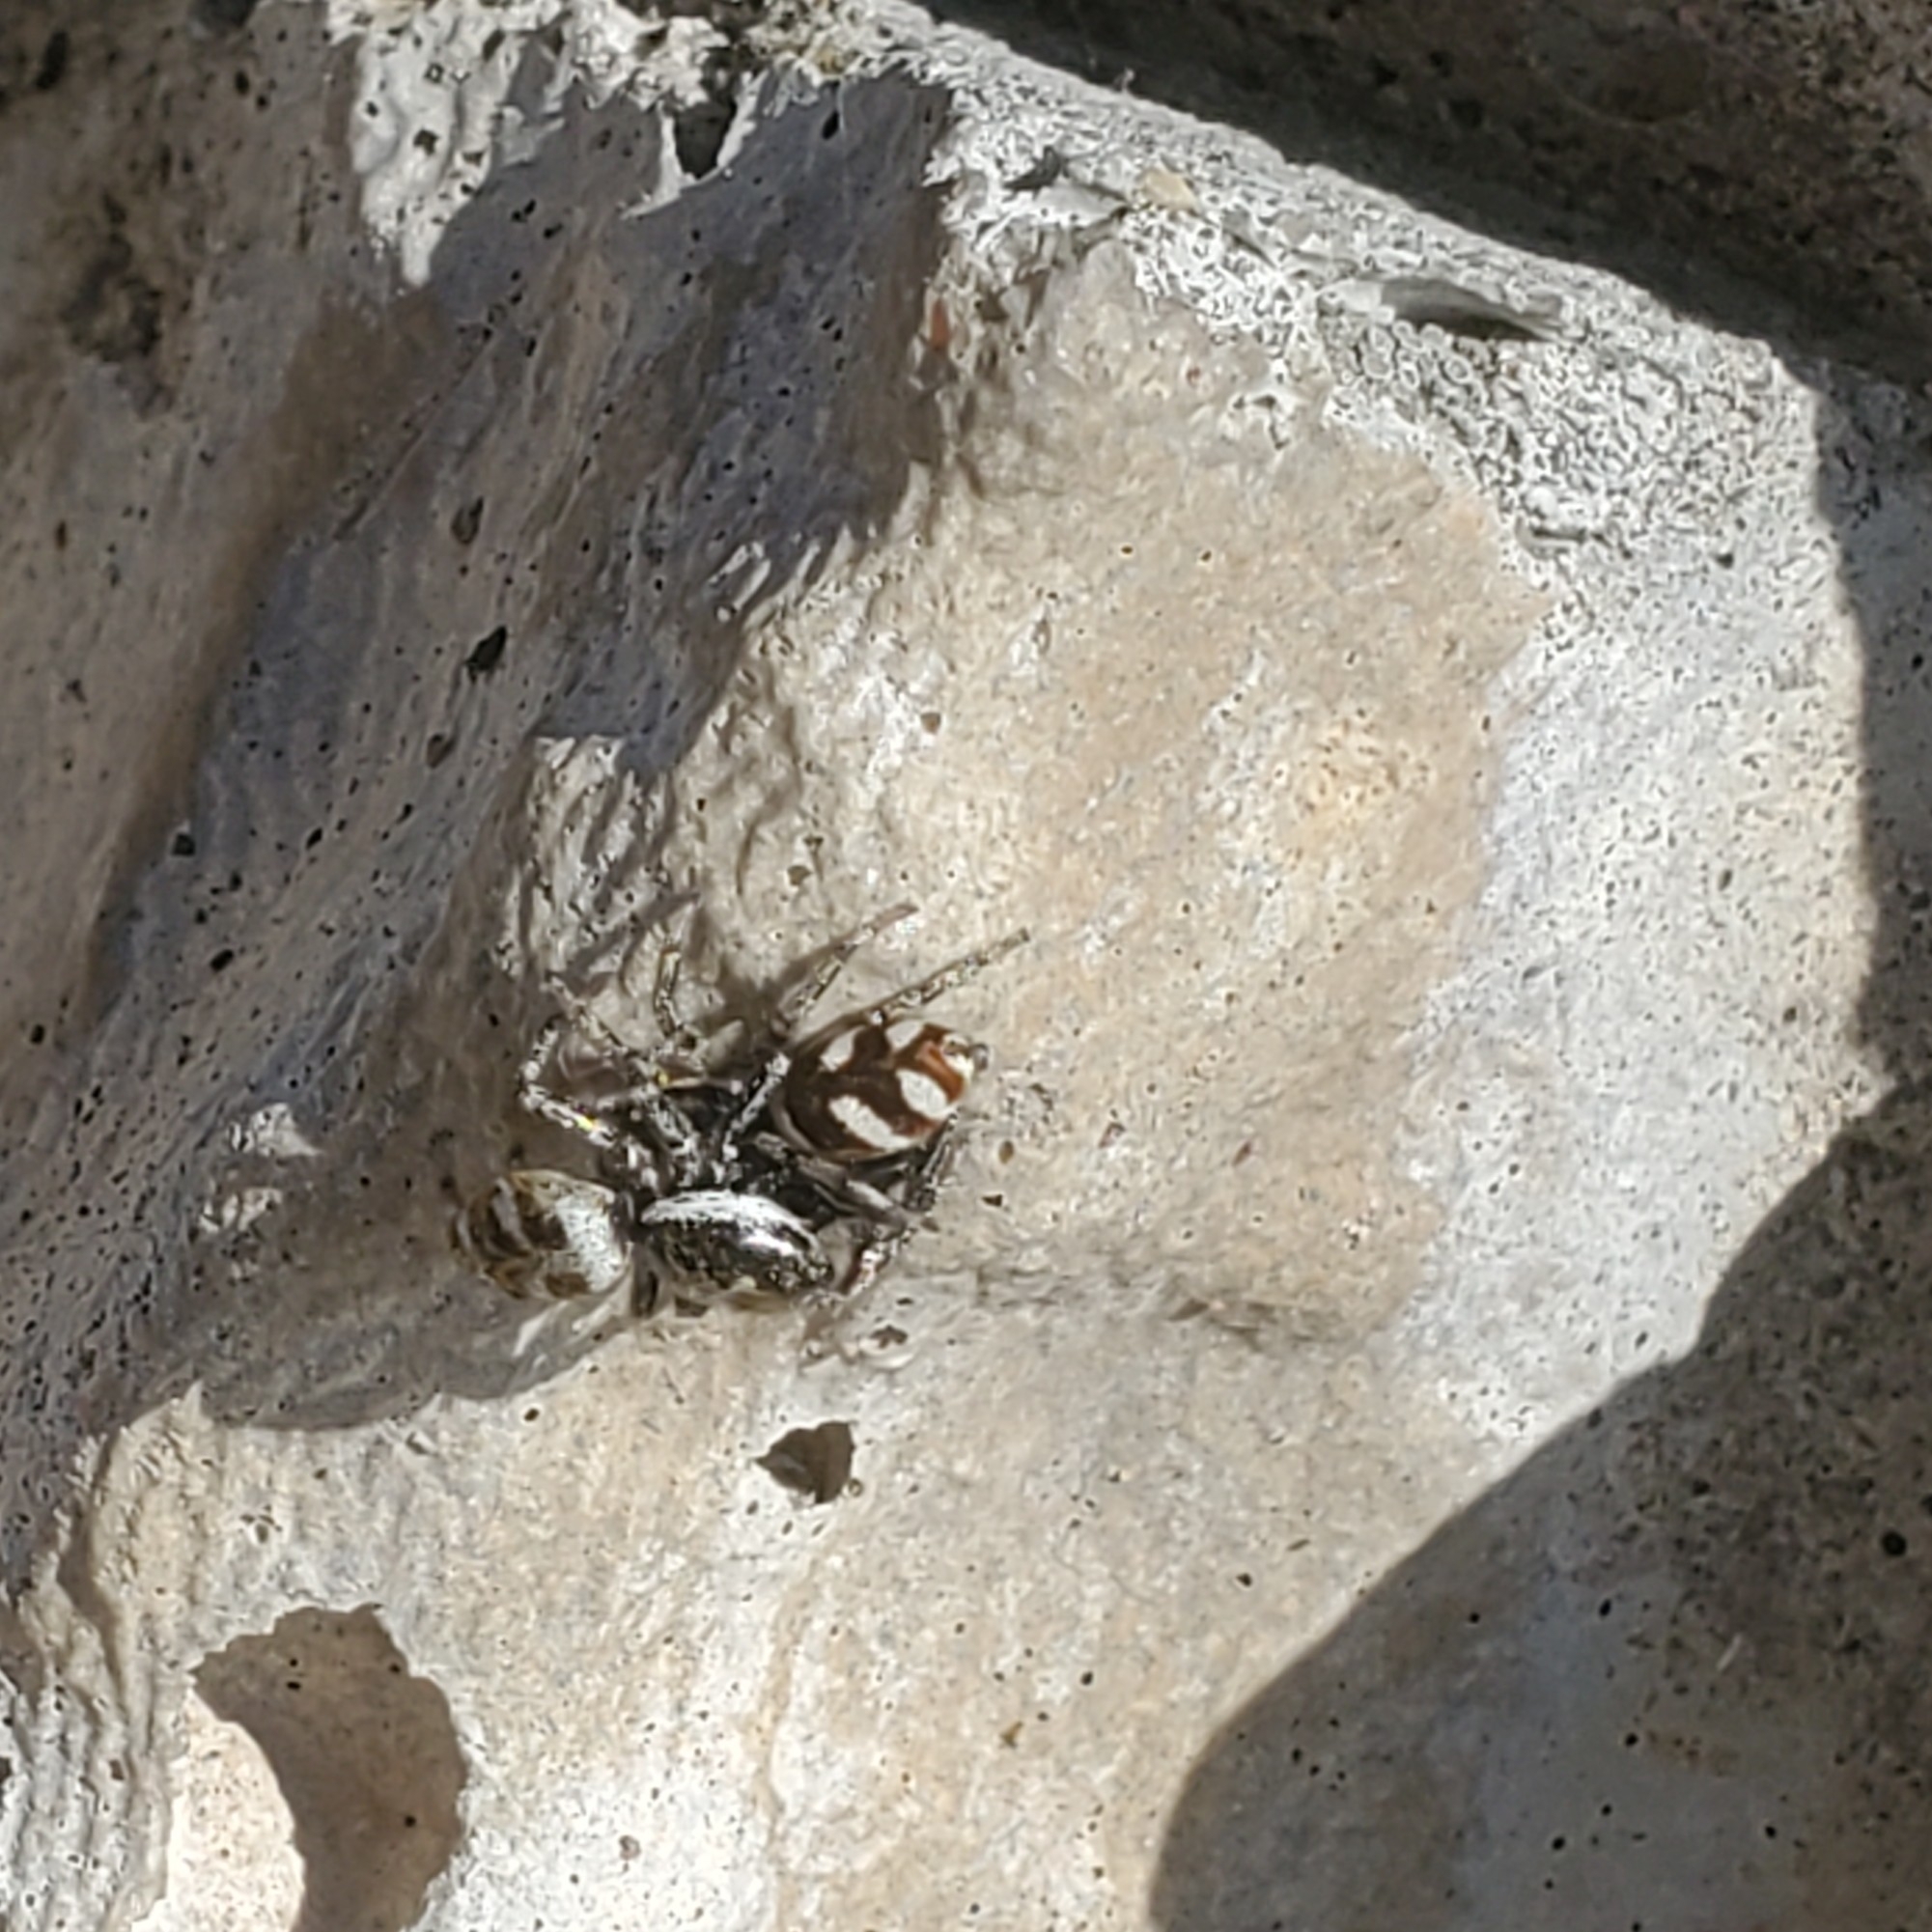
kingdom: Animalia
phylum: Arthropoda
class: Arachnida
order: Araneae
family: Salticidae
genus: Salticus
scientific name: Salticus scenicus
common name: Zebra jumper
